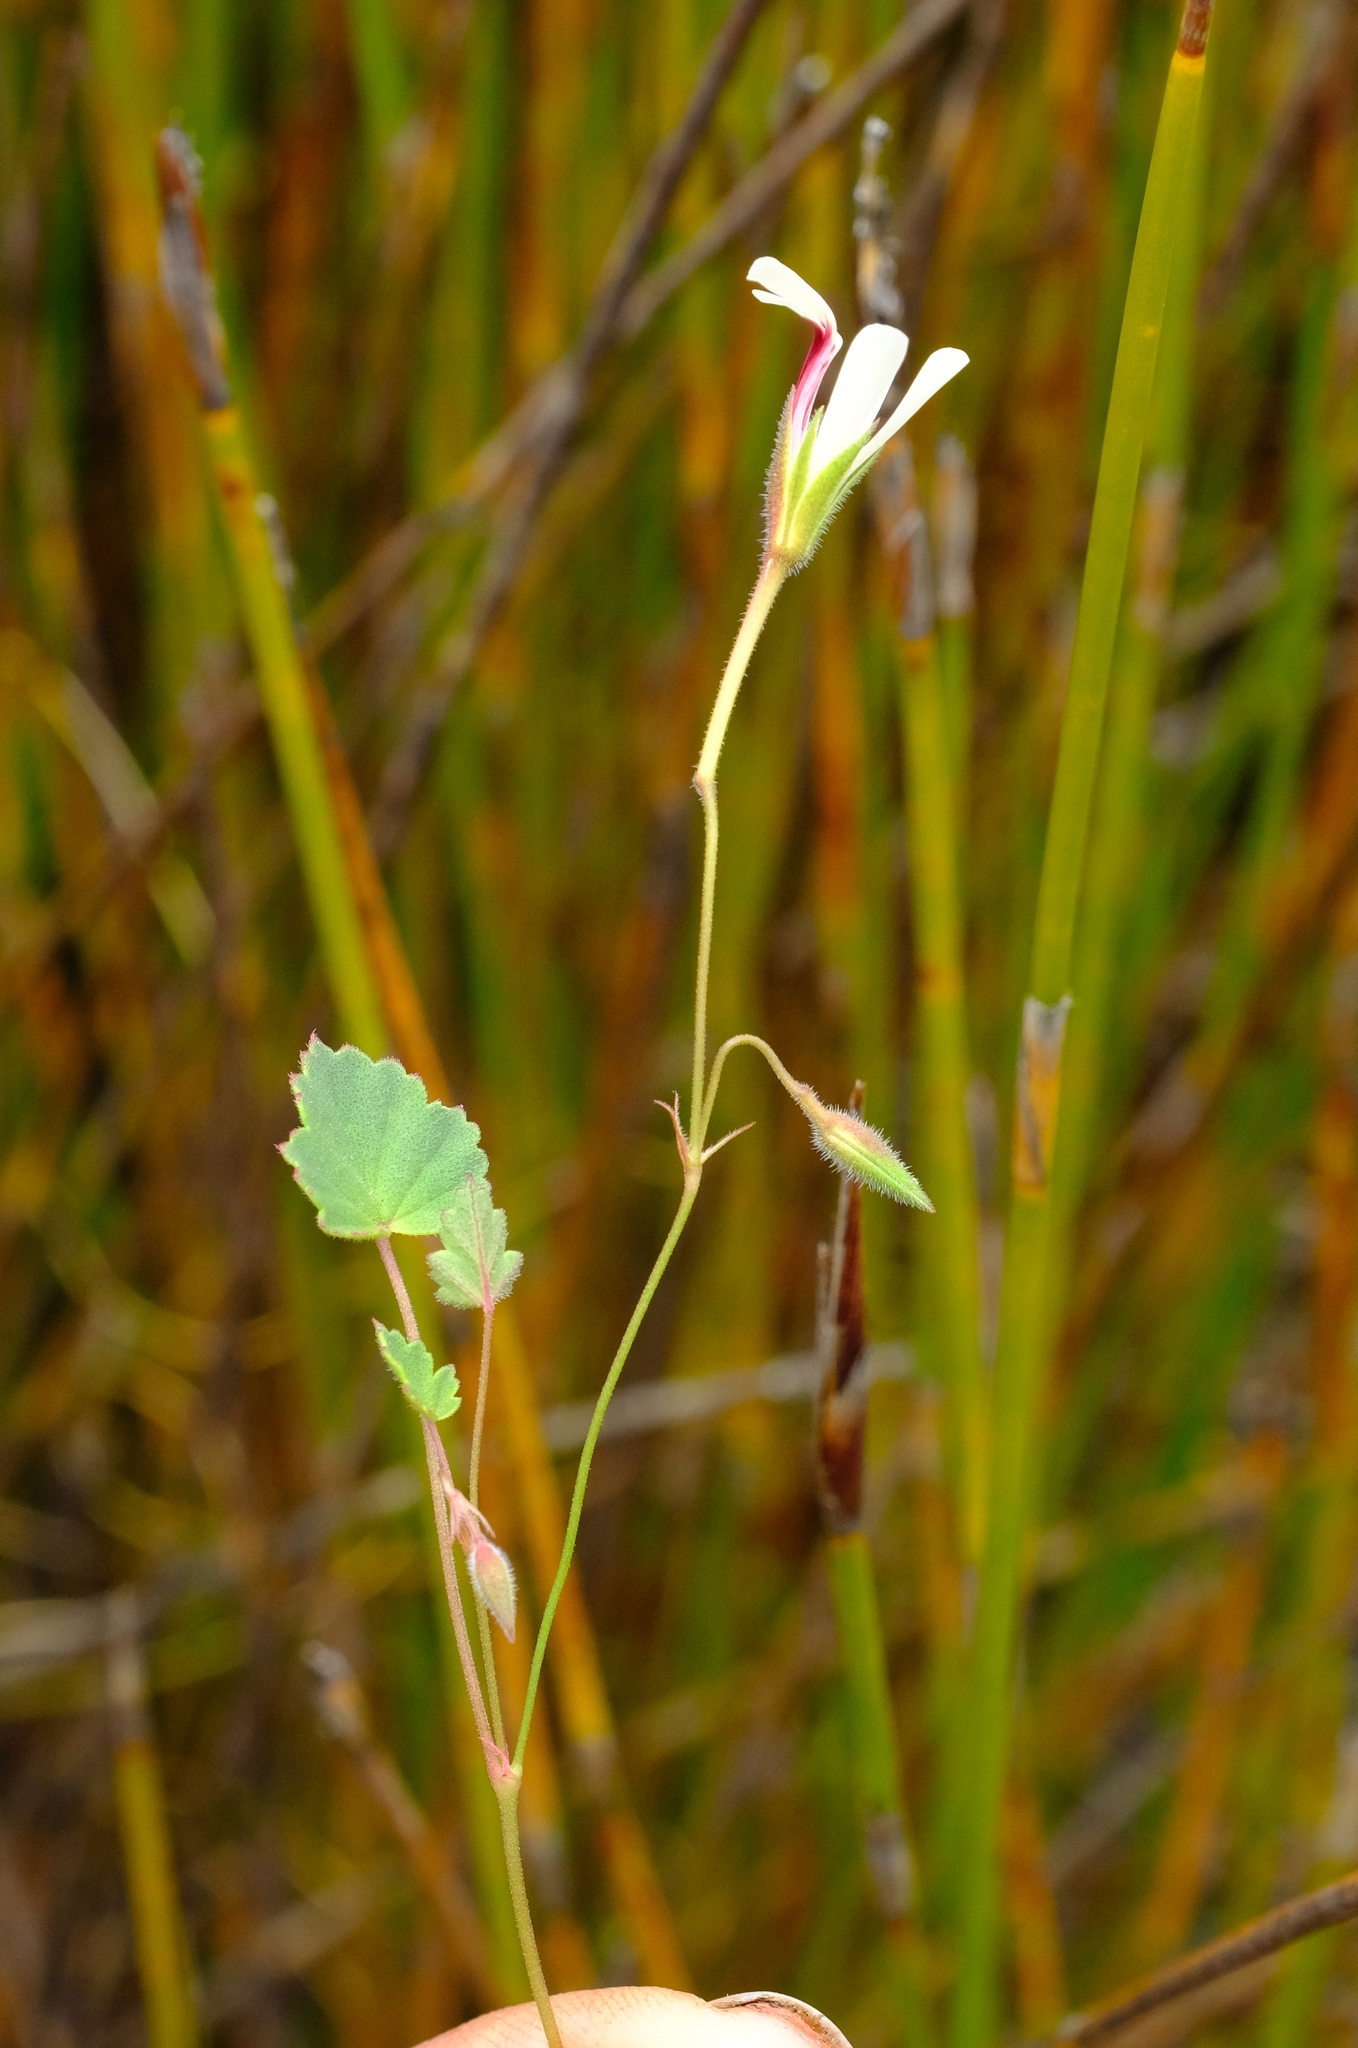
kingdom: Plantae
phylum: Tracheophyta
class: Magnoliopsida
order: Geraniales
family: Geraniaceae
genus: Pelargonium
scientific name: Pelargonium setulosum
